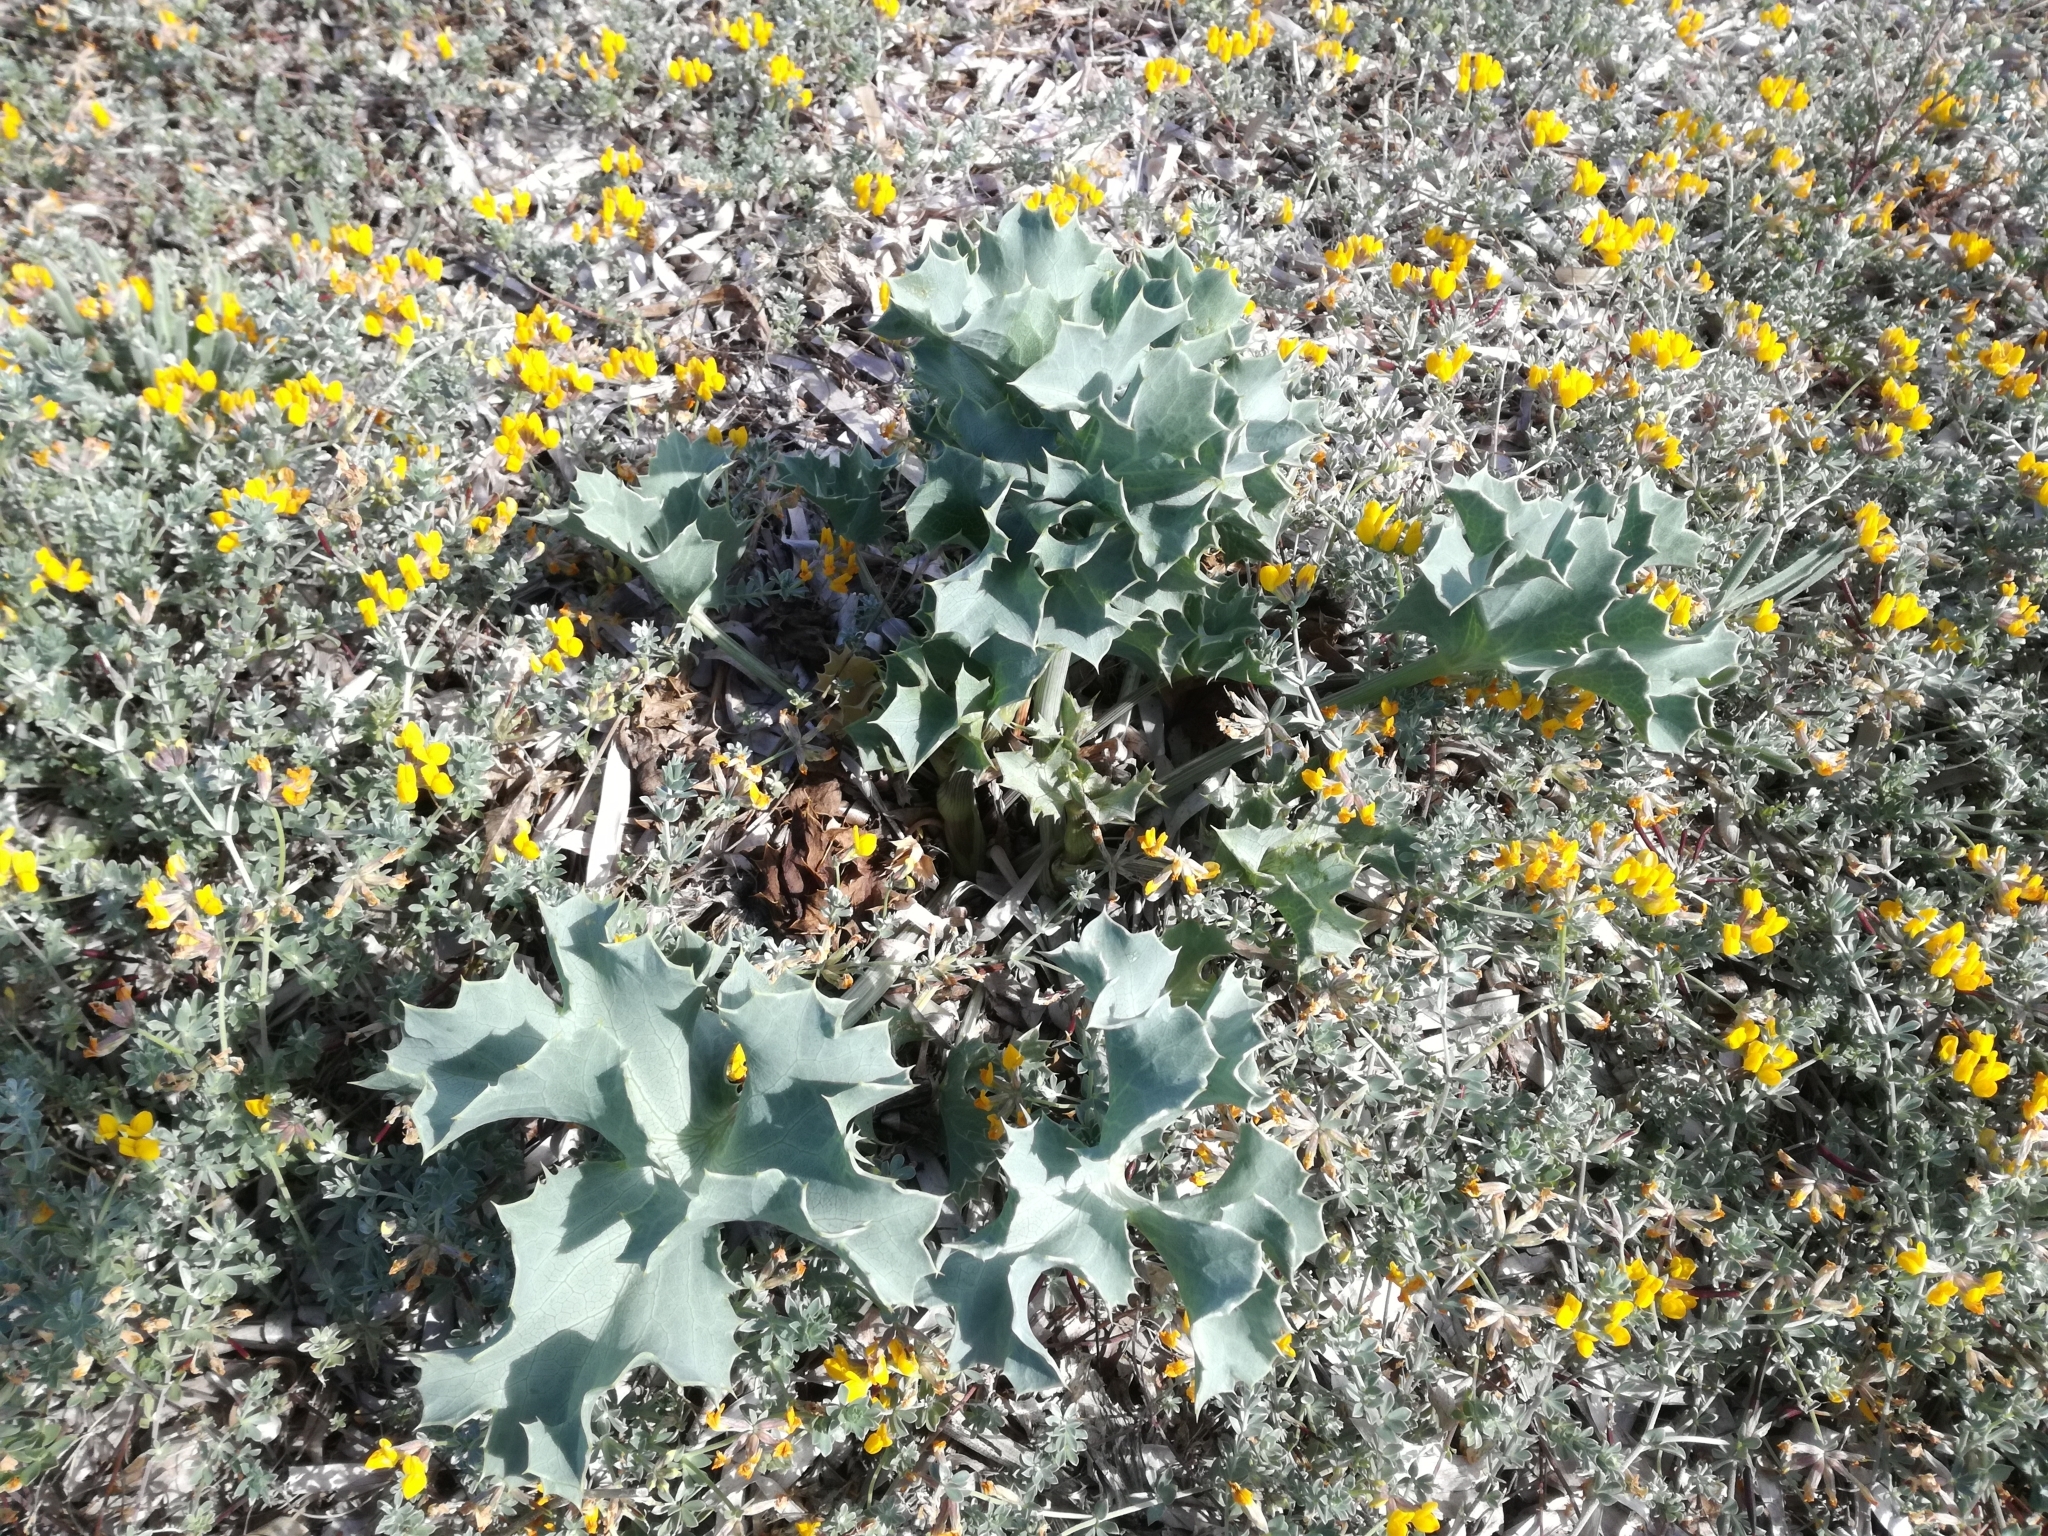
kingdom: Plantae
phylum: Tracheophyta
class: Magnoliopsida
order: Apiales
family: Apiaceae
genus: Eryngium
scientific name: Eryngium maritimum
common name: Sea-holly
